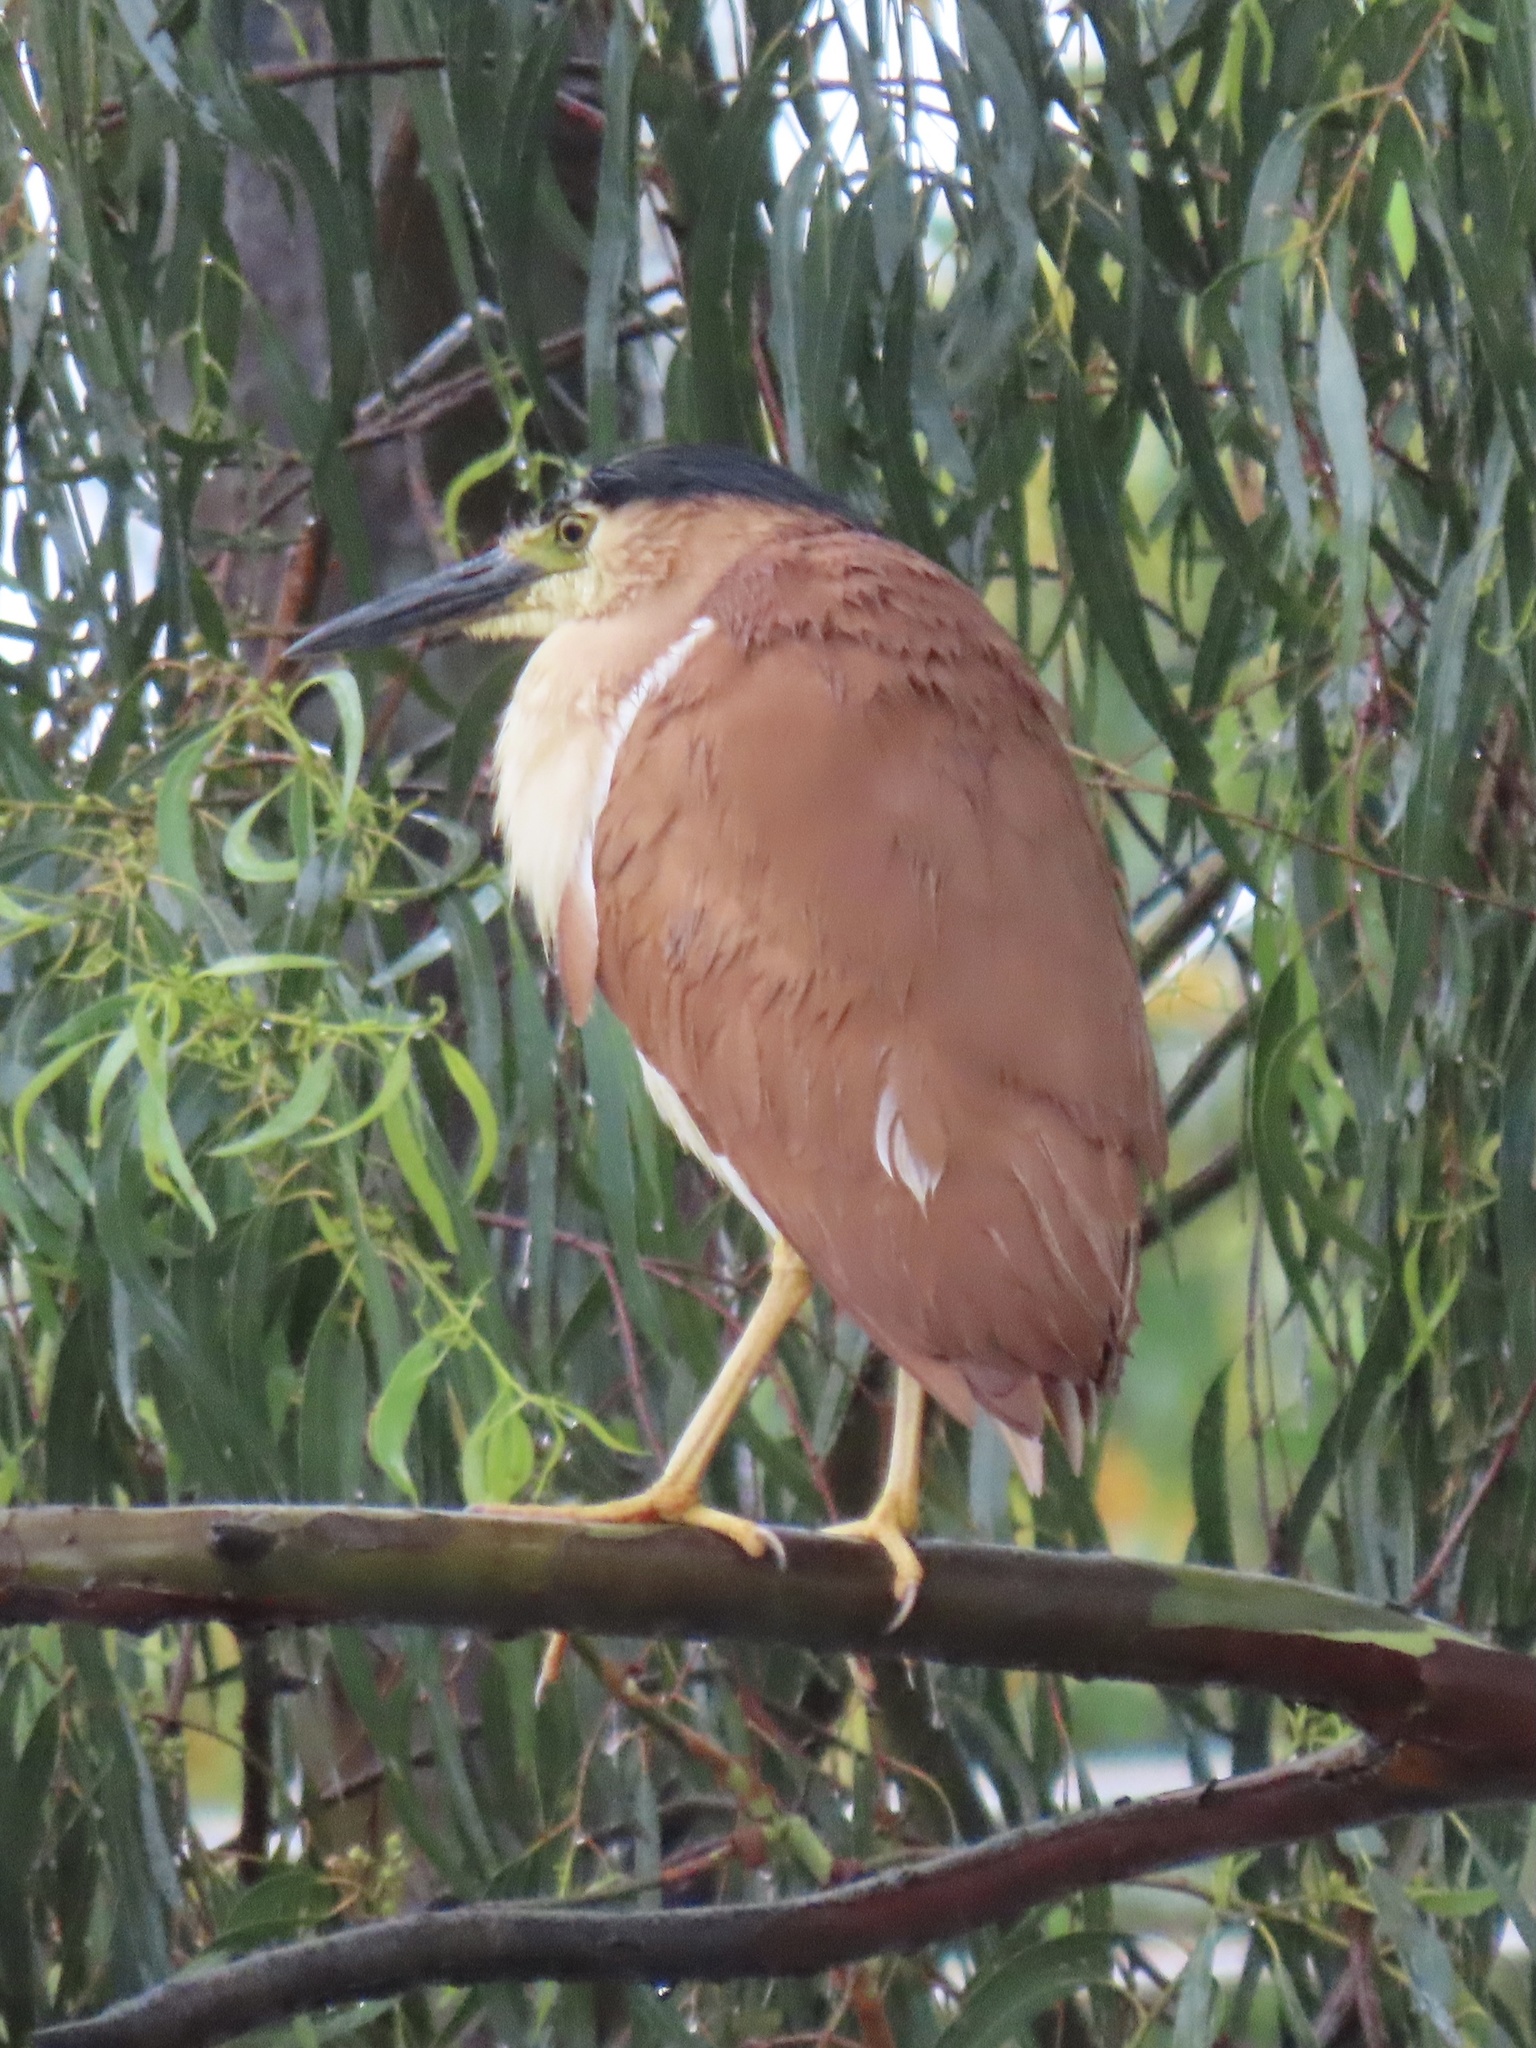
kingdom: Animalia
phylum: Chordata
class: Aves
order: Pelecaniformes
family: Ardeidae
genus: Nycticorax
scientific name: Nycticorax caledonicus
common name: Rufous night-heron
